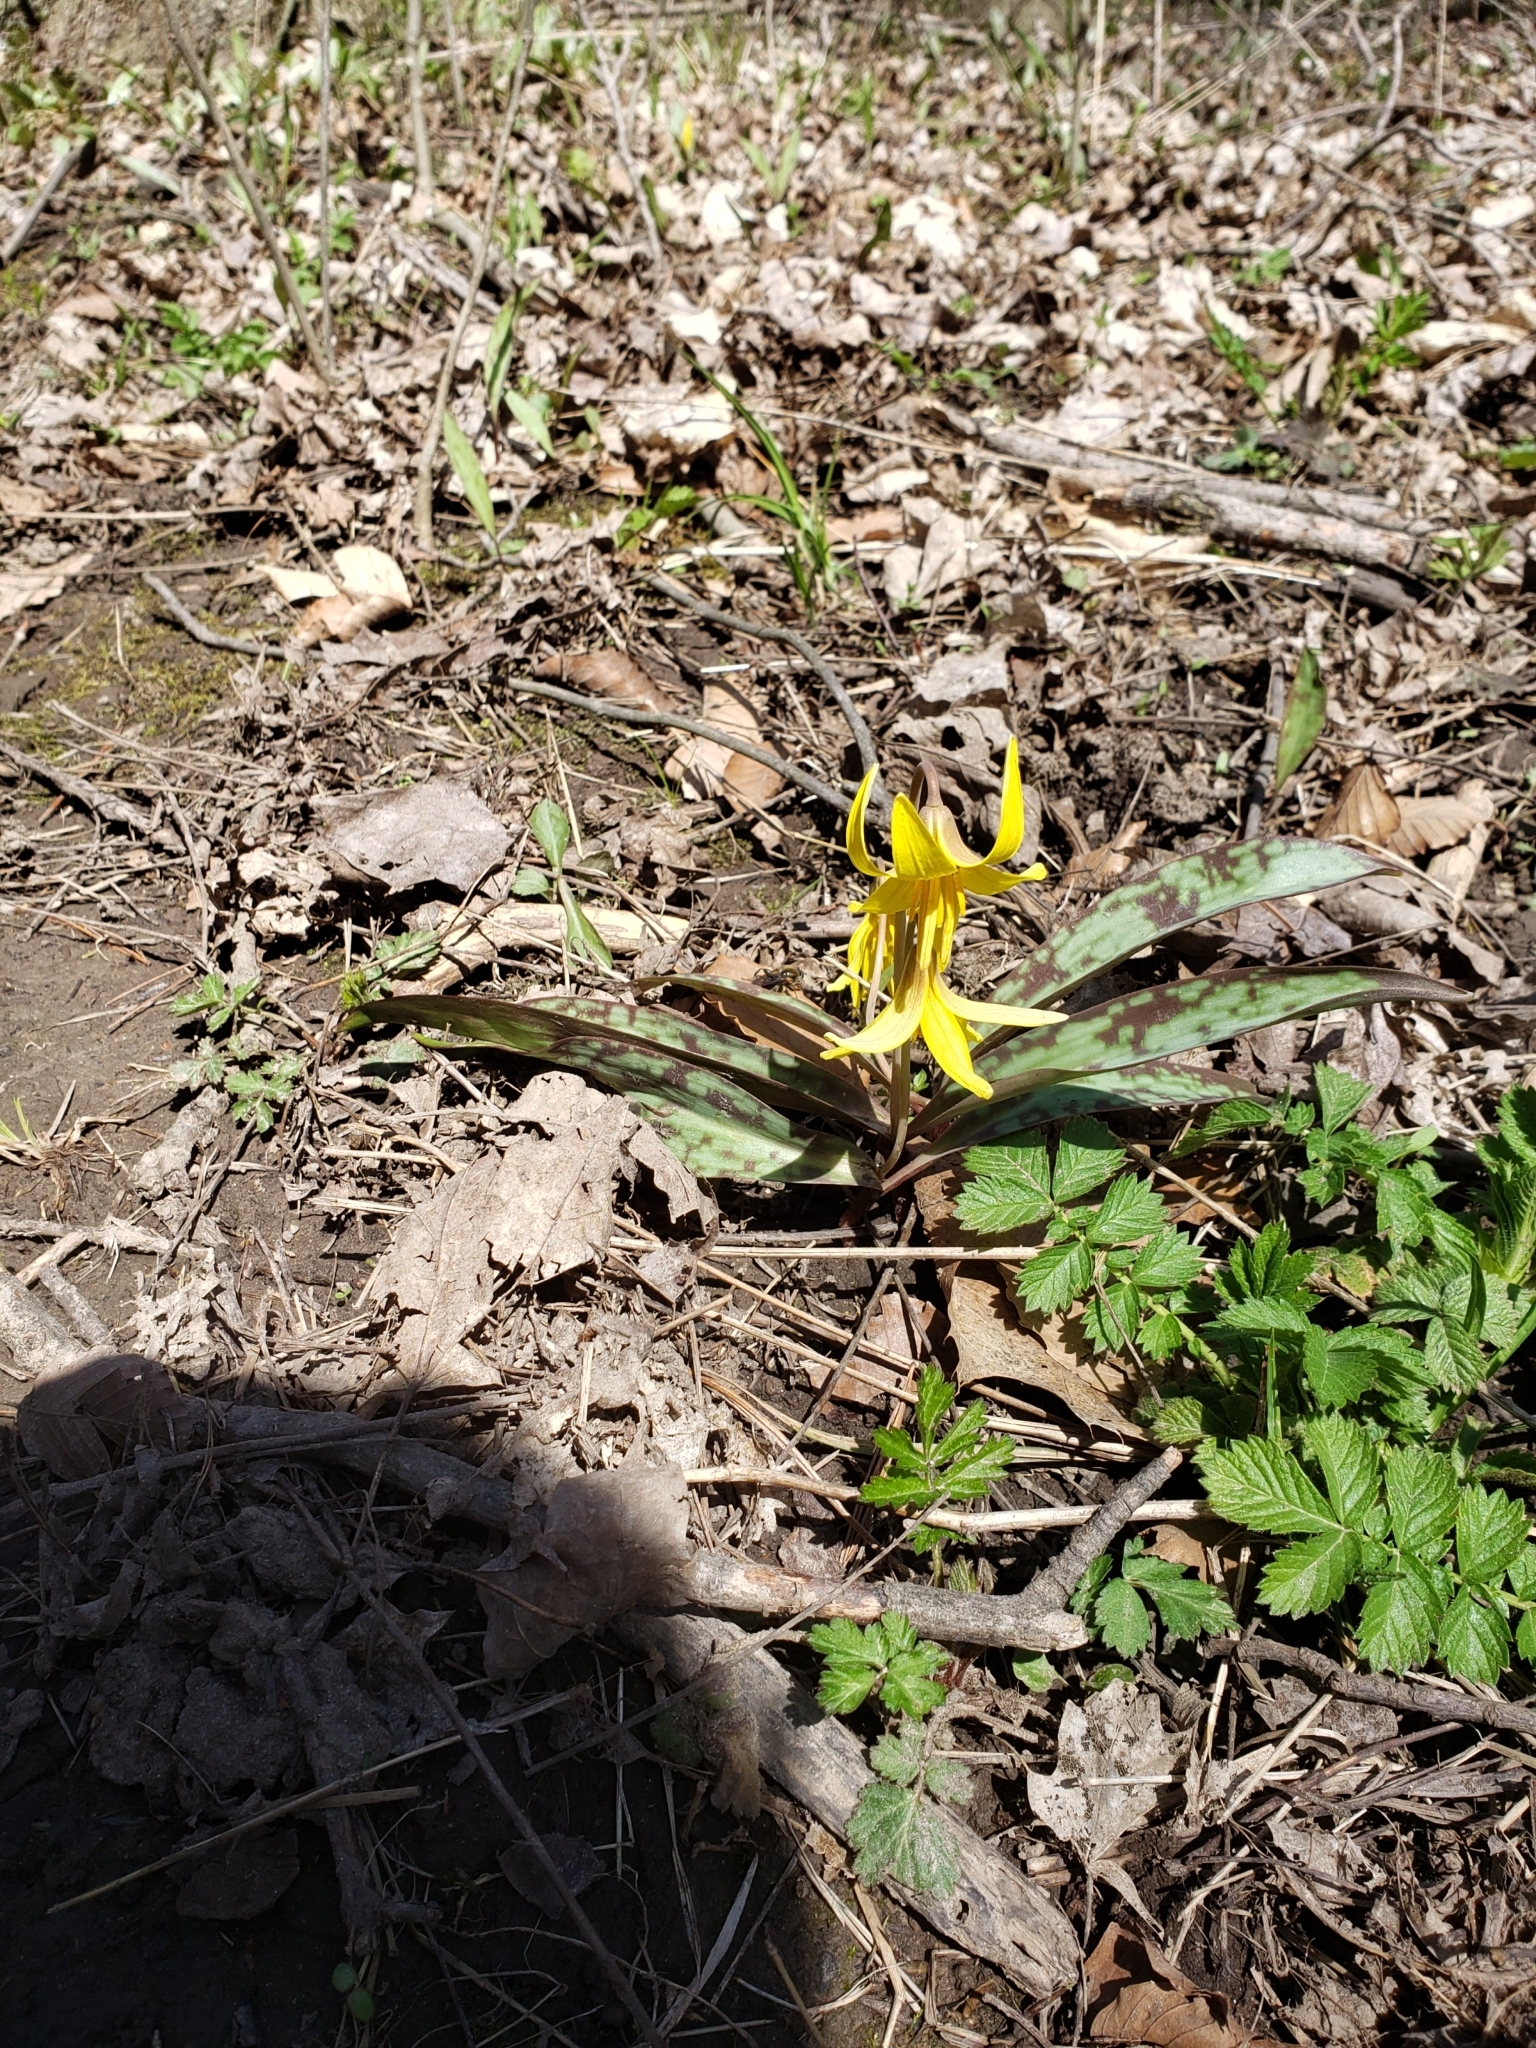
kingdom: Plantae
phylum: Tracheophyta
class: Liliopsida
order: Liliales
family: Liliaceae
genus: Erythronium
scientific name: Erythronium americanum
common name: Yellow adder's-tongue
